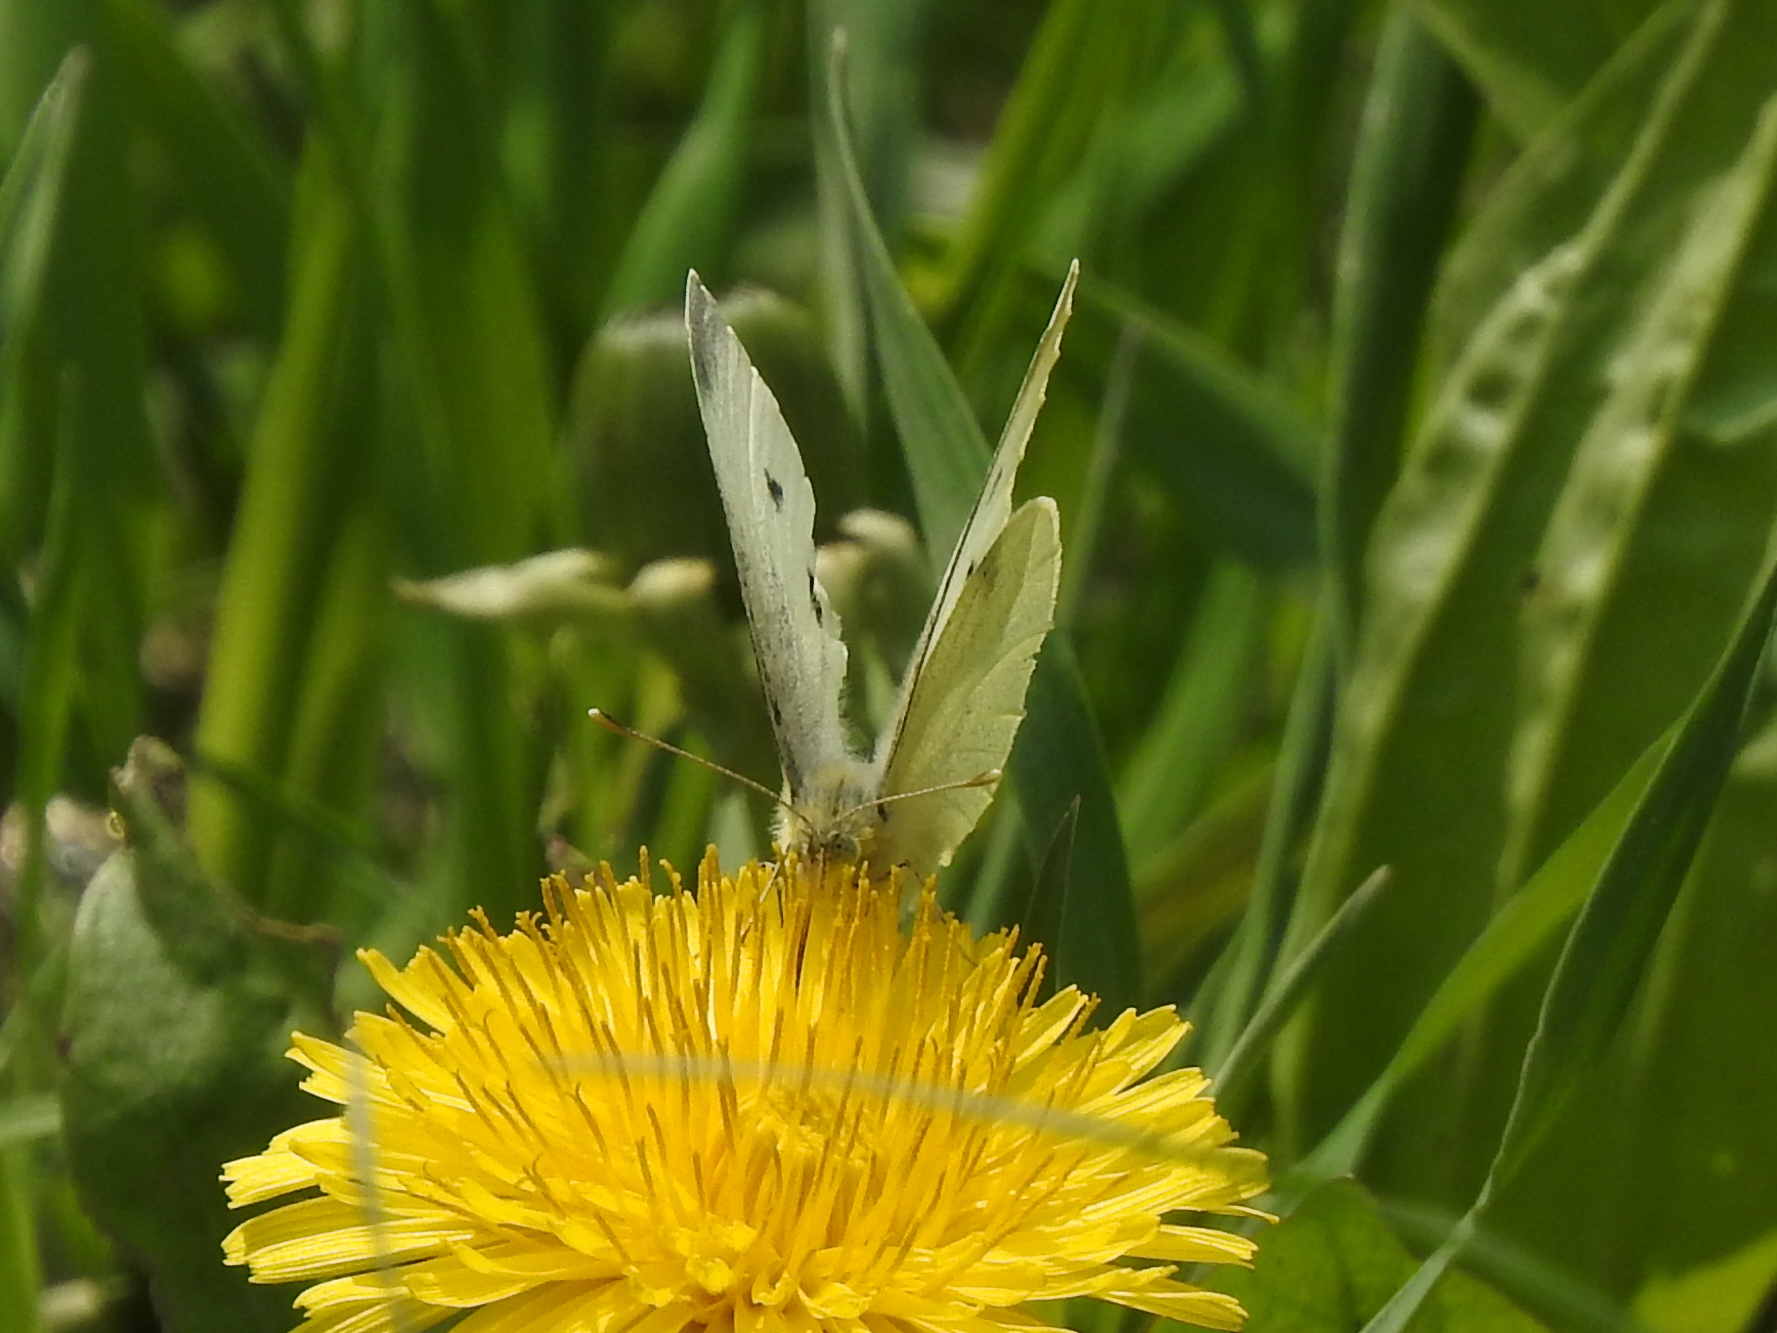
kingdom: Animalia
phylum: Arthropoda
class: Insecta
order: Lepidoptera
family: Pieridae
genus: Pieris
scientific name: Pieris rapae
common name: Small white
